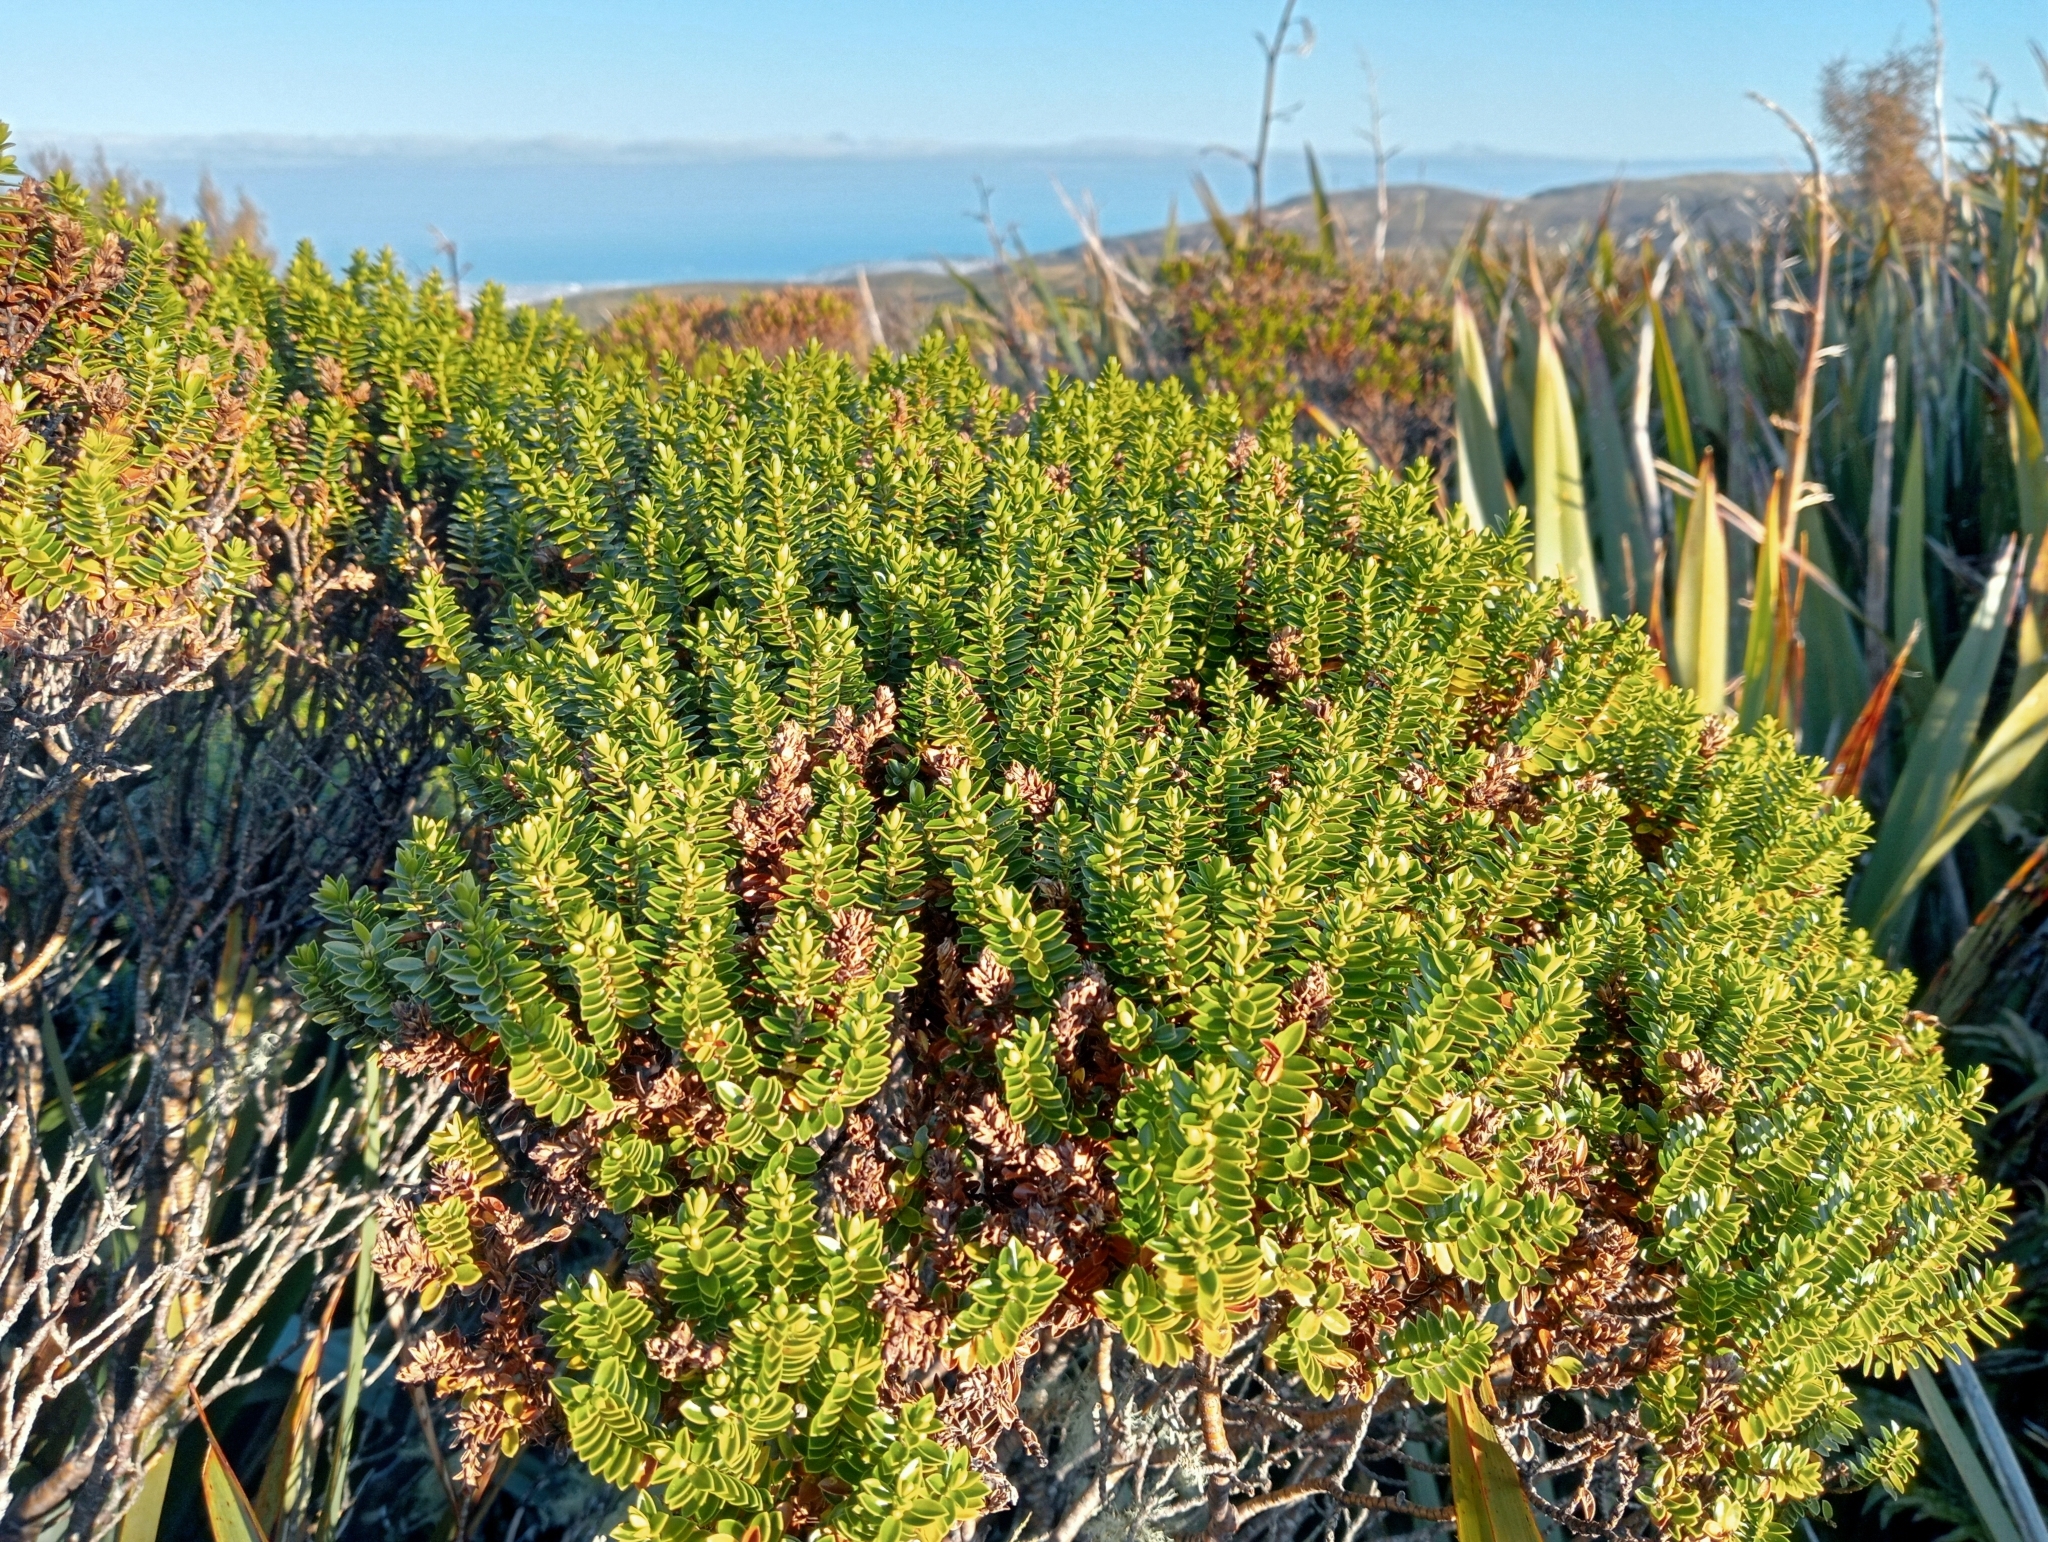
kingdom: Plantae
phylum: Tracheophyta
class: Magnoliopsida
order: Lamiales
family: Plantaginaceae
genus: Veronica
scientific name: Veronica odora
